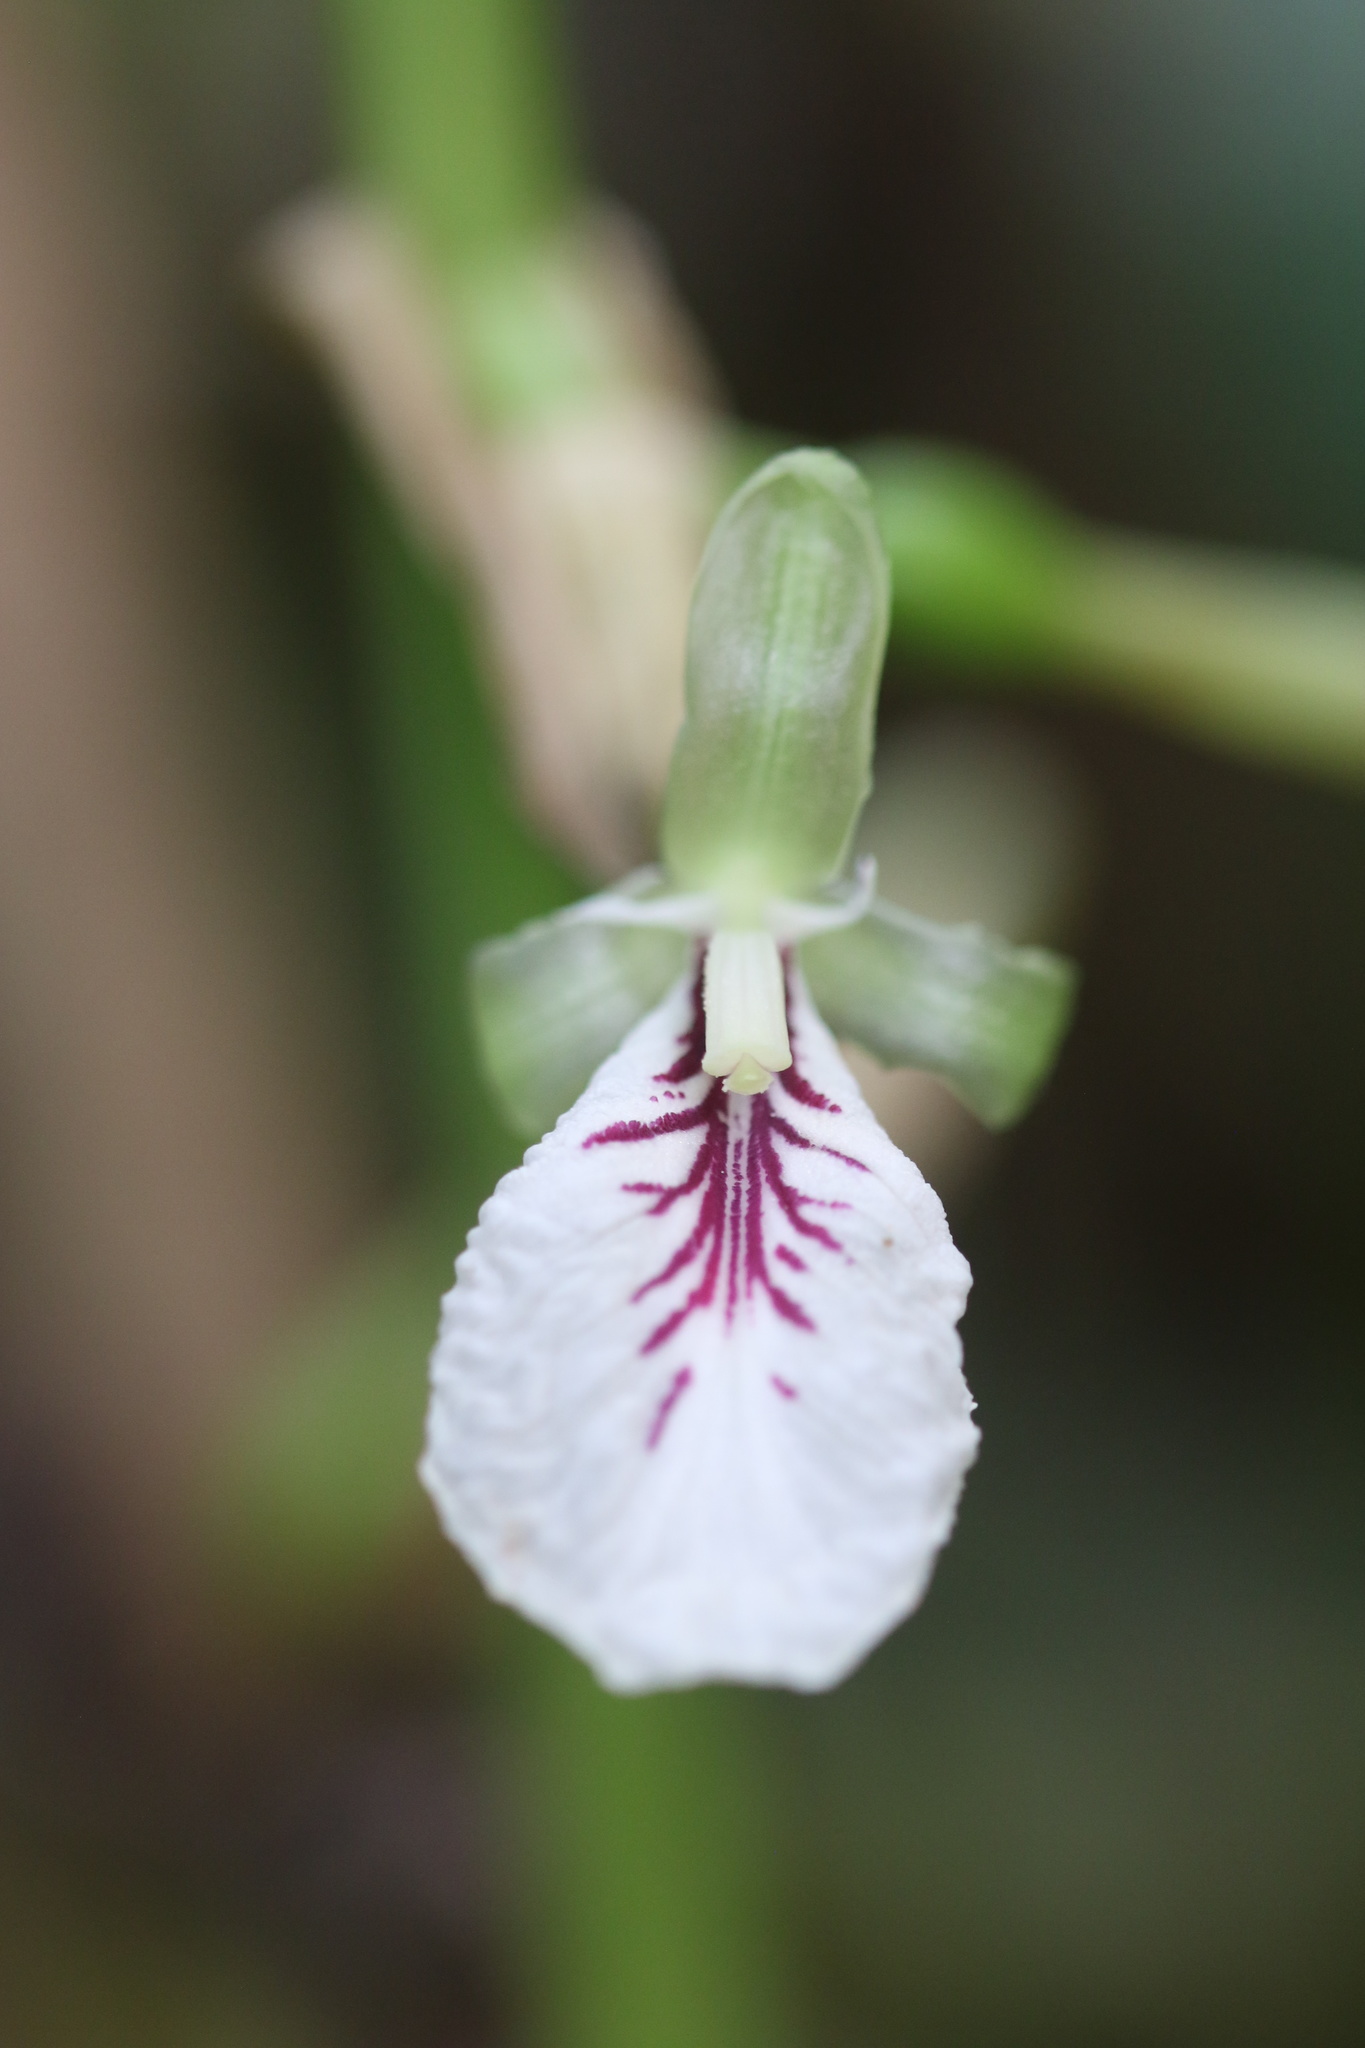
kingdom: Plantae
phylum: Tracheophyta
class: Liliopsida
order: Zingiberales
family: Zingiberaceae
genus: Elettaria
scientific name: Elettaria cardamomum
